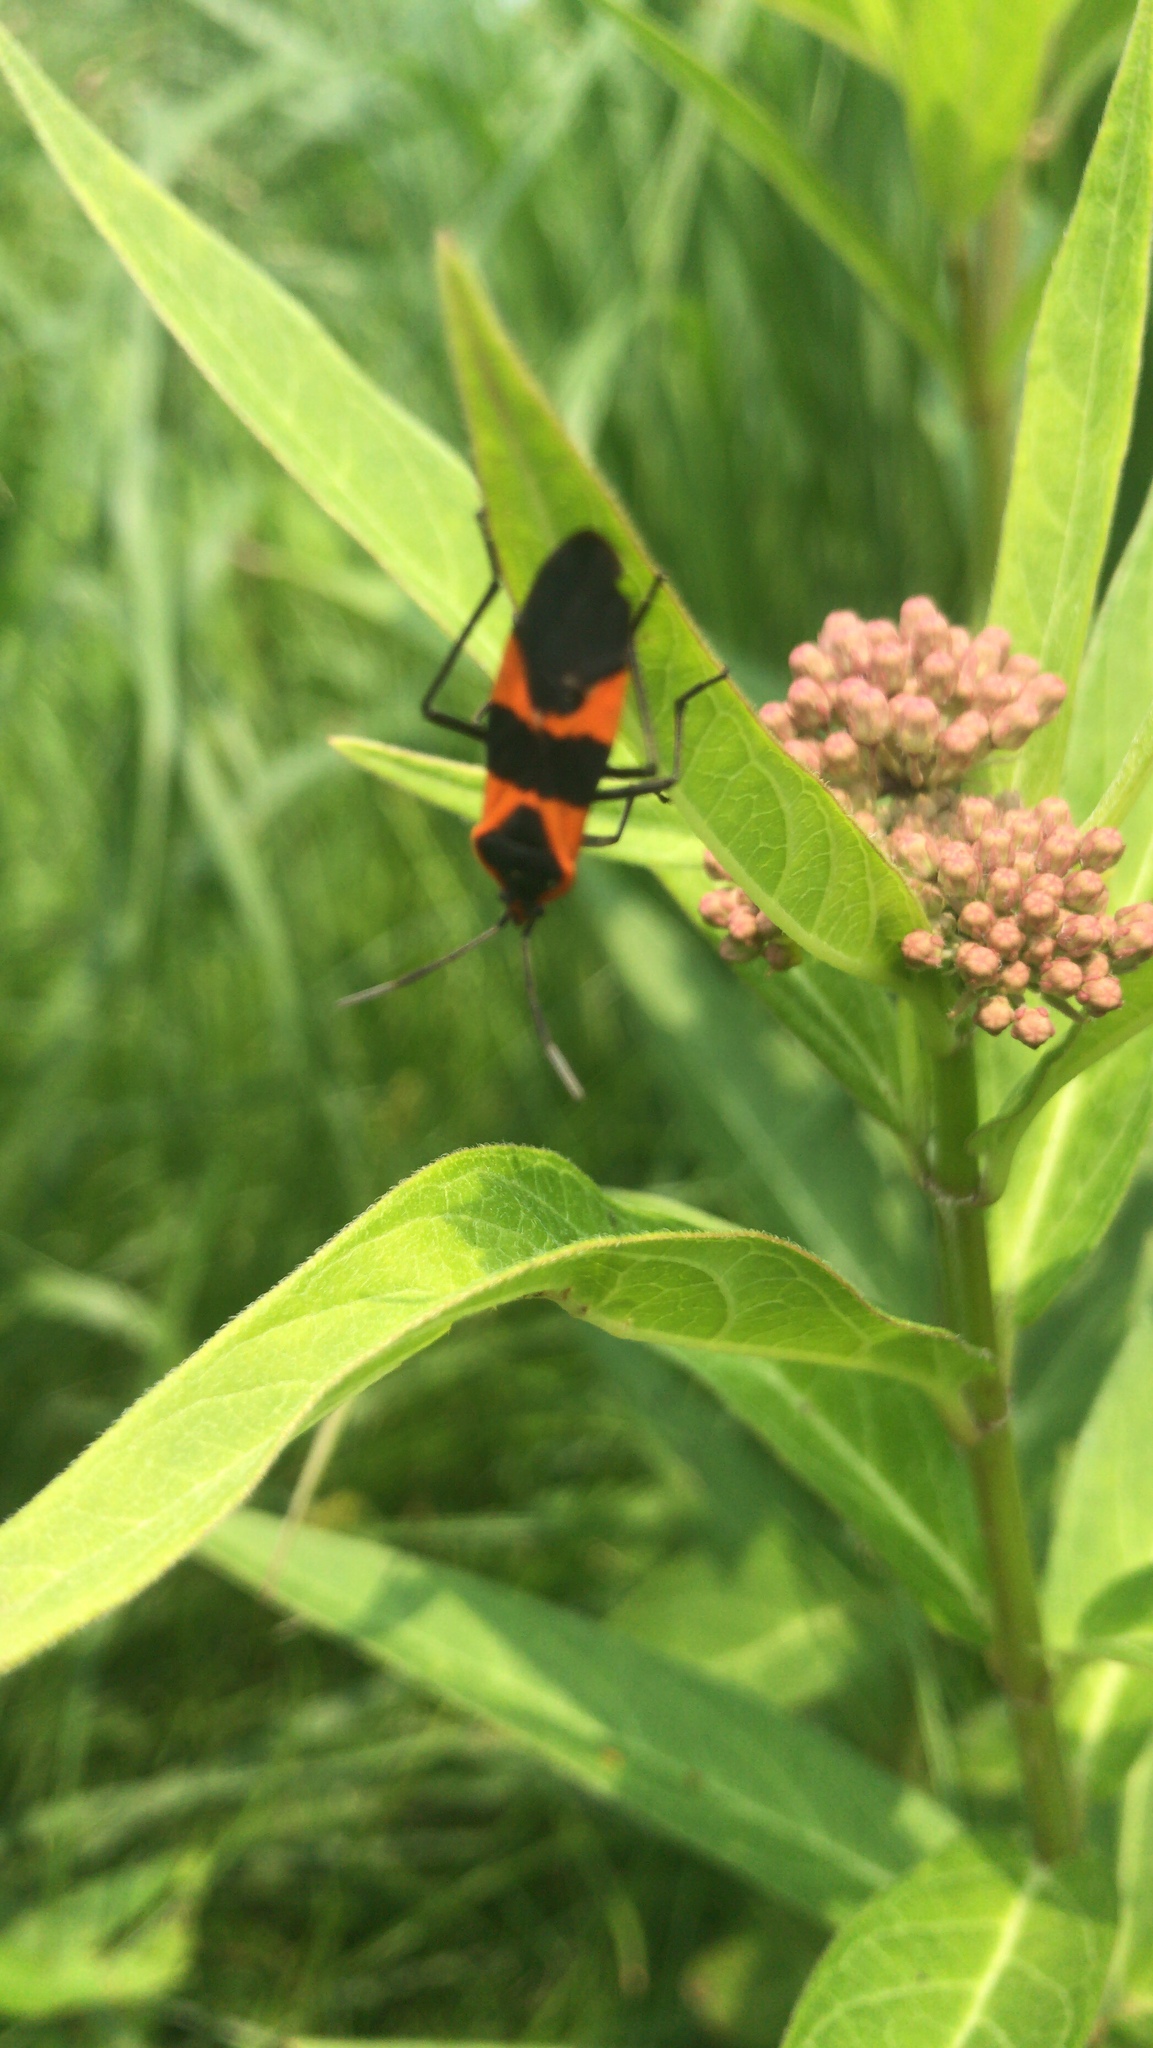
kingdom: Animalia
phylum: Arthropoda
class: Insecta
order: Hemiptera
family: Lygaeidae
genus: Oncopeltus
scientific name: Oncopeltus fasciatus
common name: Large milkweed bug
